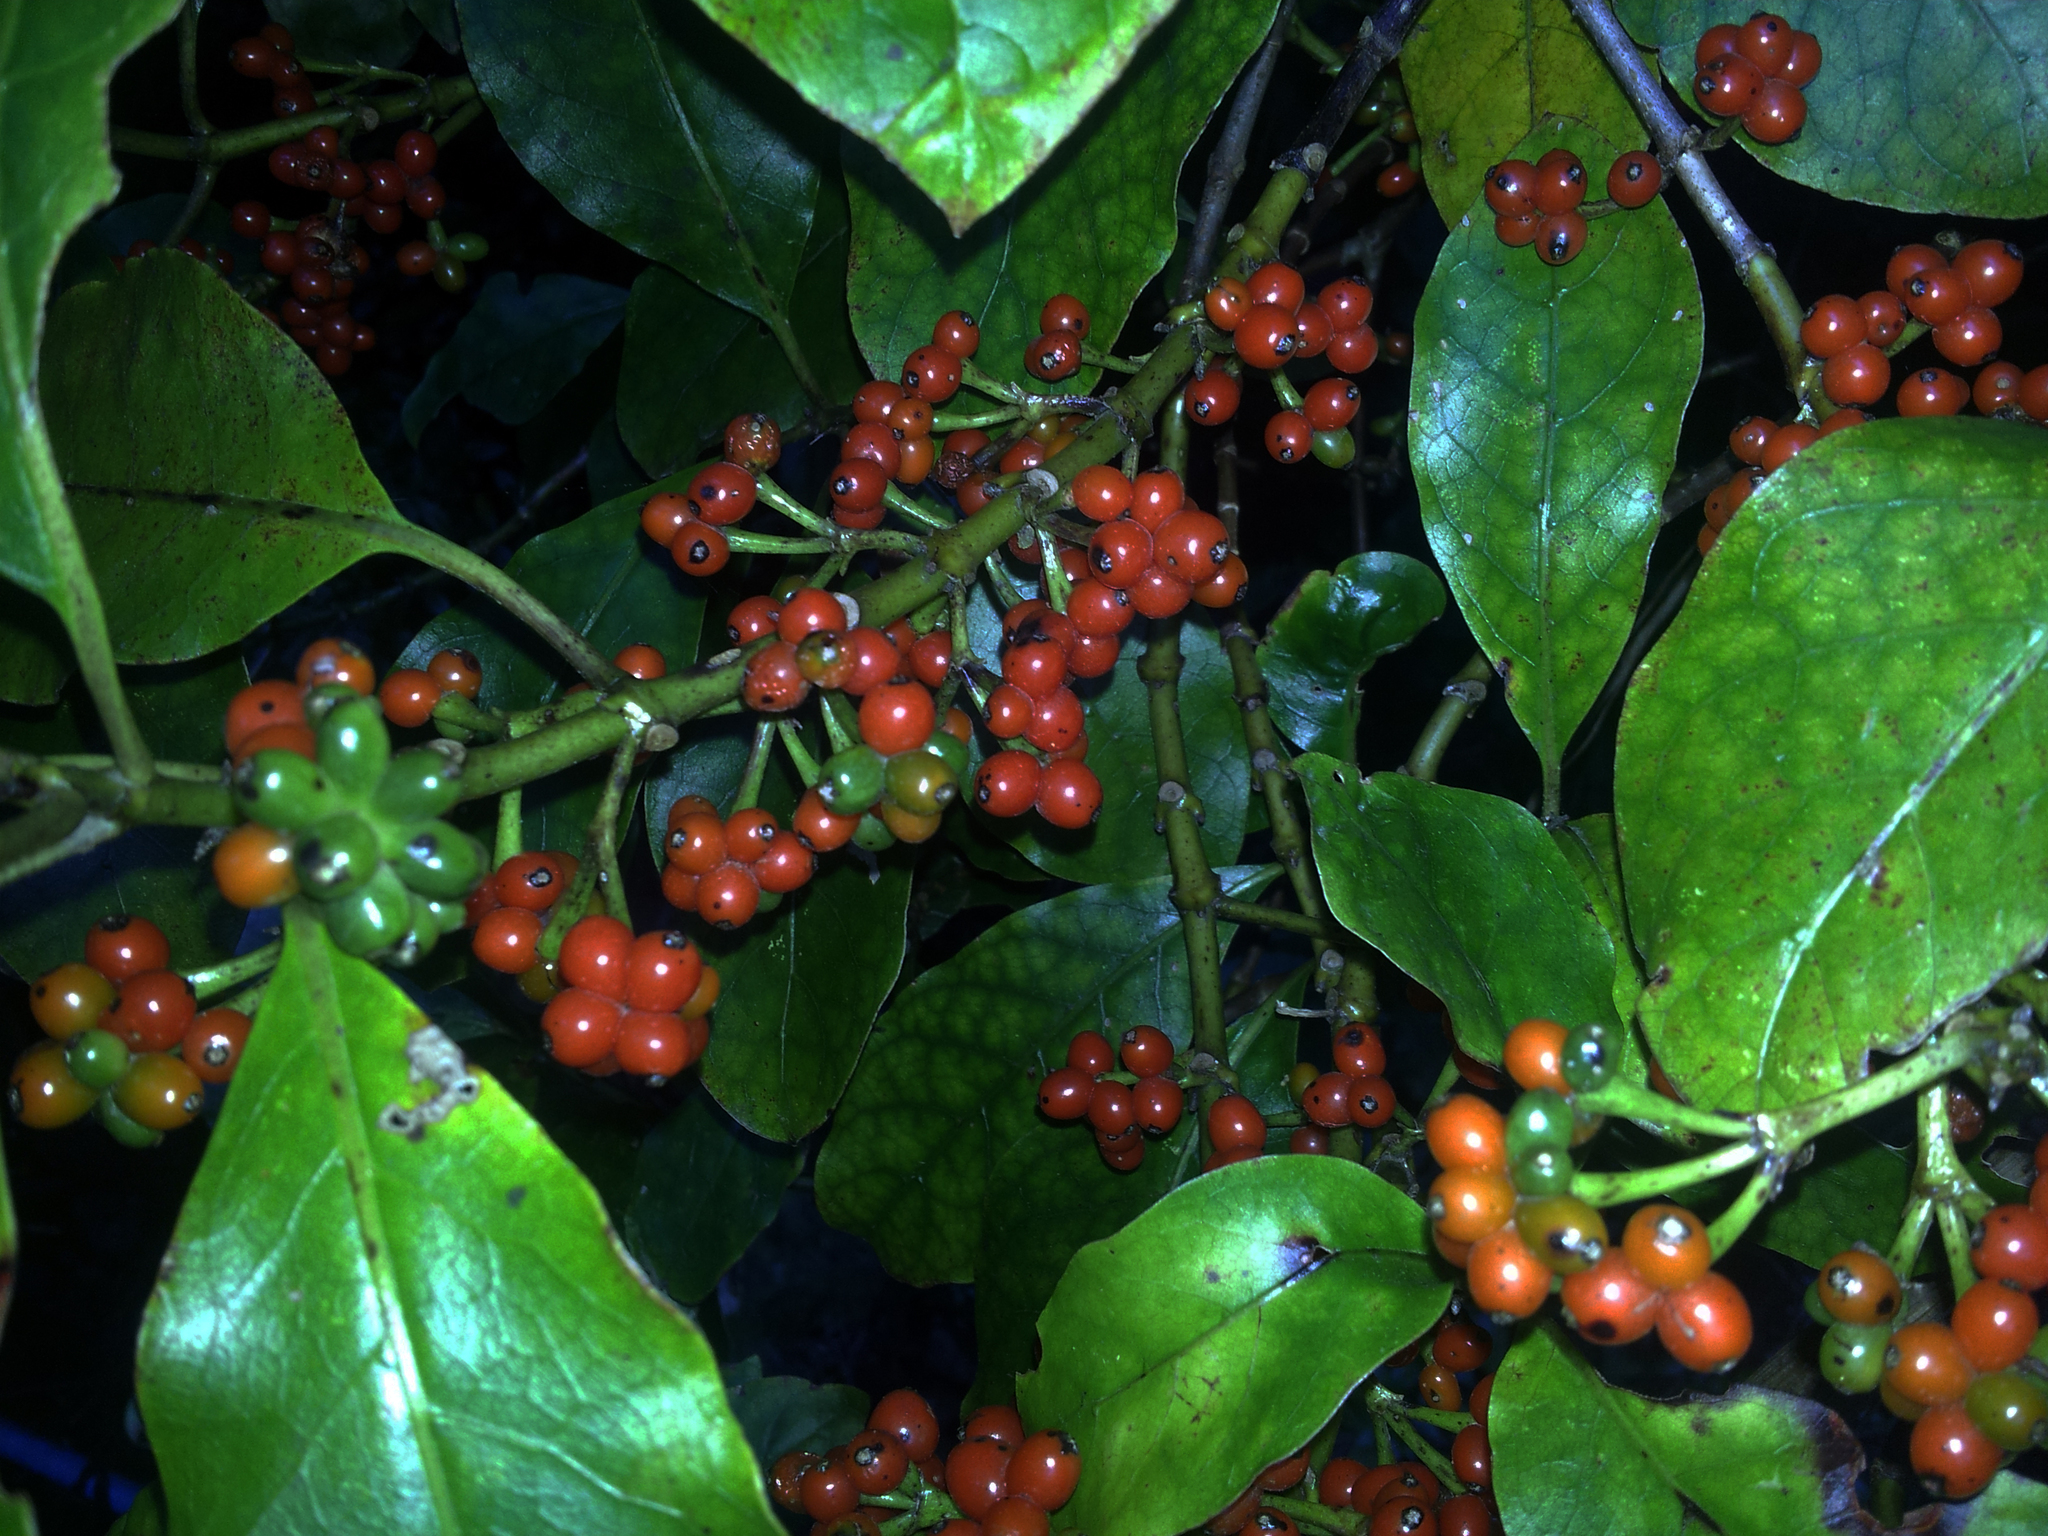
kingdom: Plantae
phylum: Tracheophyta
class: Magnoliopsida
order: Gentianales
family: Rubiaceae
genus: Coprosma
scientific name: Coprosma autumnalis
